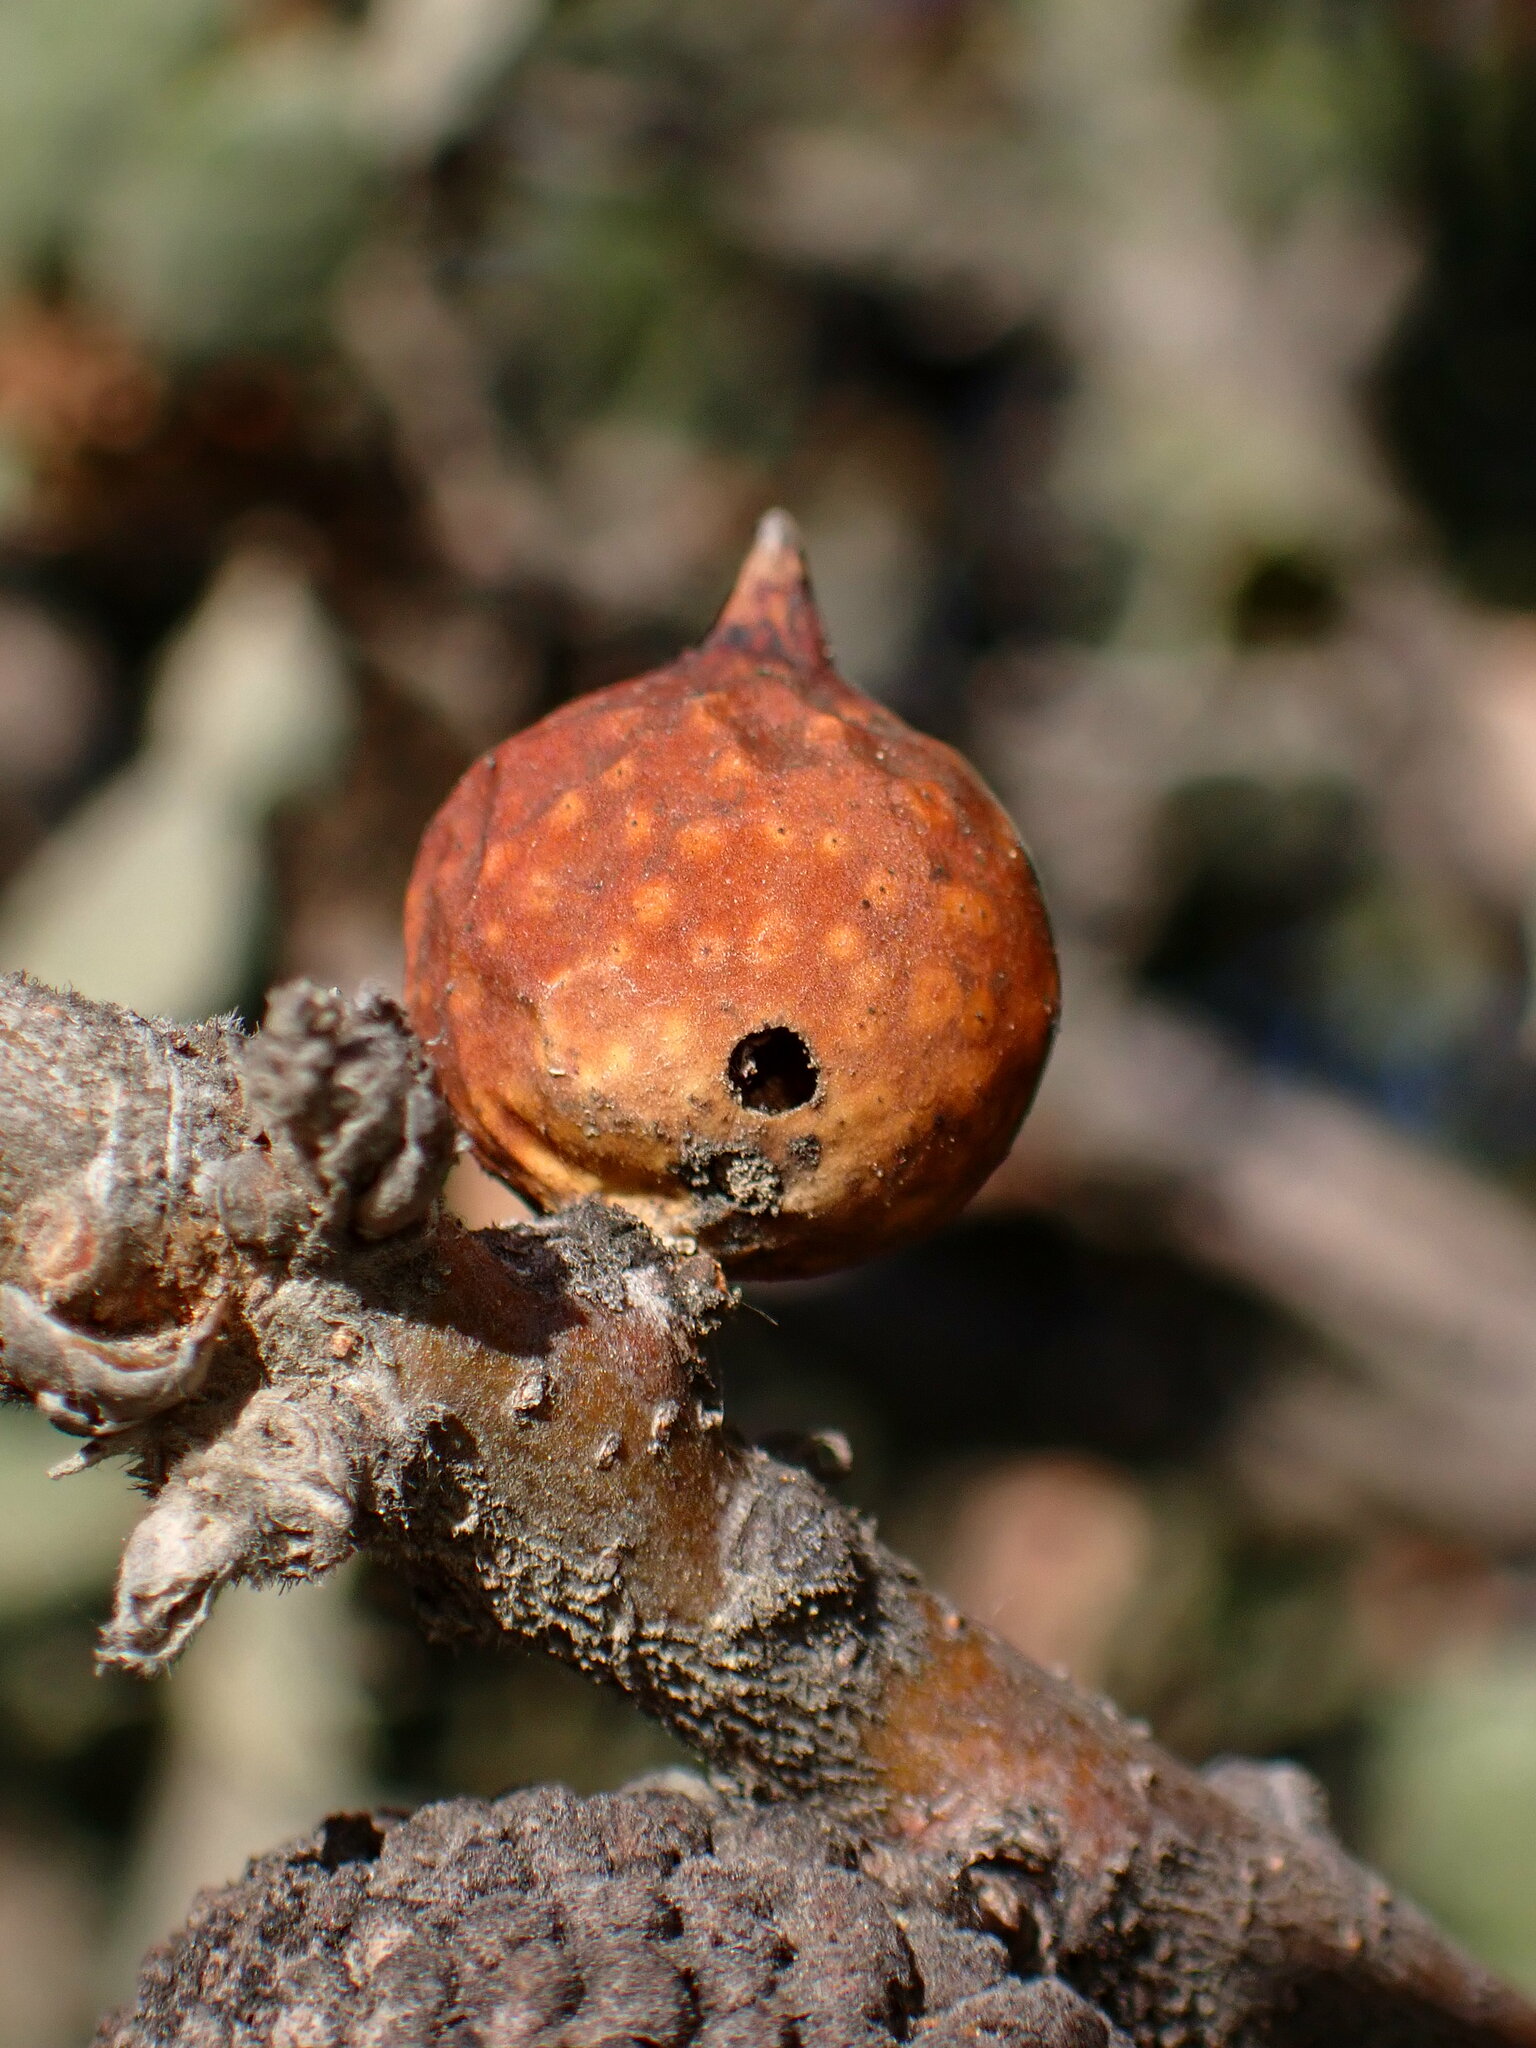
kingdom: Animalia
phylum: Arthropoda
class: Insecta
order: Hymenoptera
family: Cynipidae
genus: Burnettweldia
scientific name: Burnettweldia
